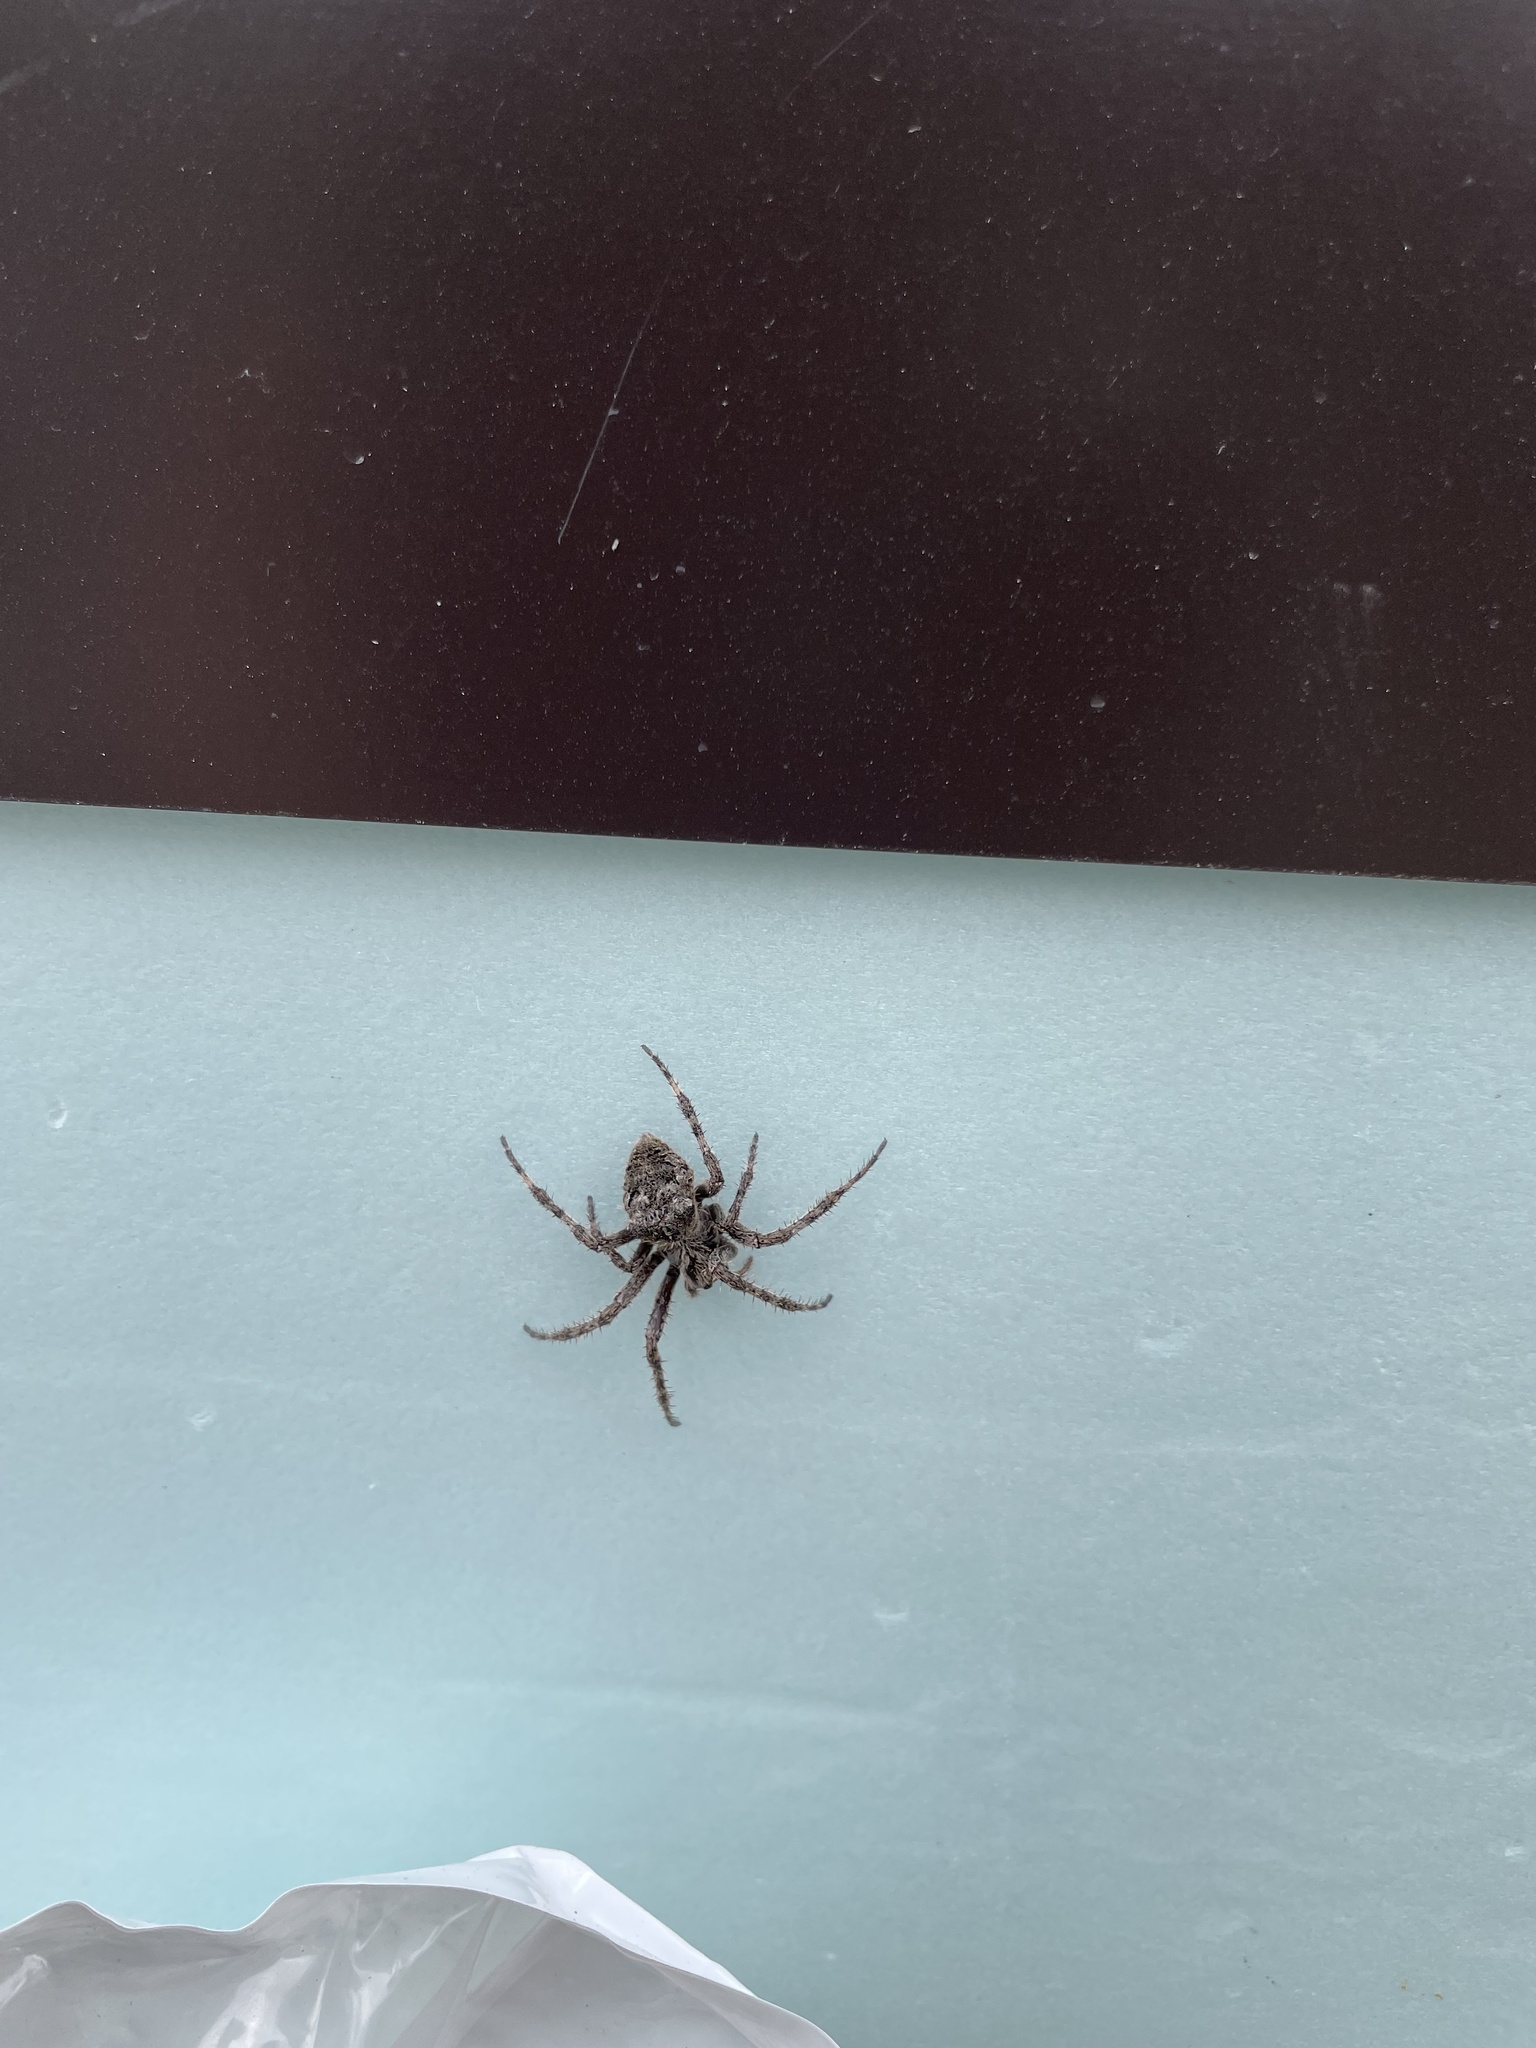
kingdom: Animalia
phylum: Arthropoda
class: Arachnida
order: Araneae
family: Araneidae
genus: Araneus
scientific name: Araneus saevus
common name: Fierce orbweaver
